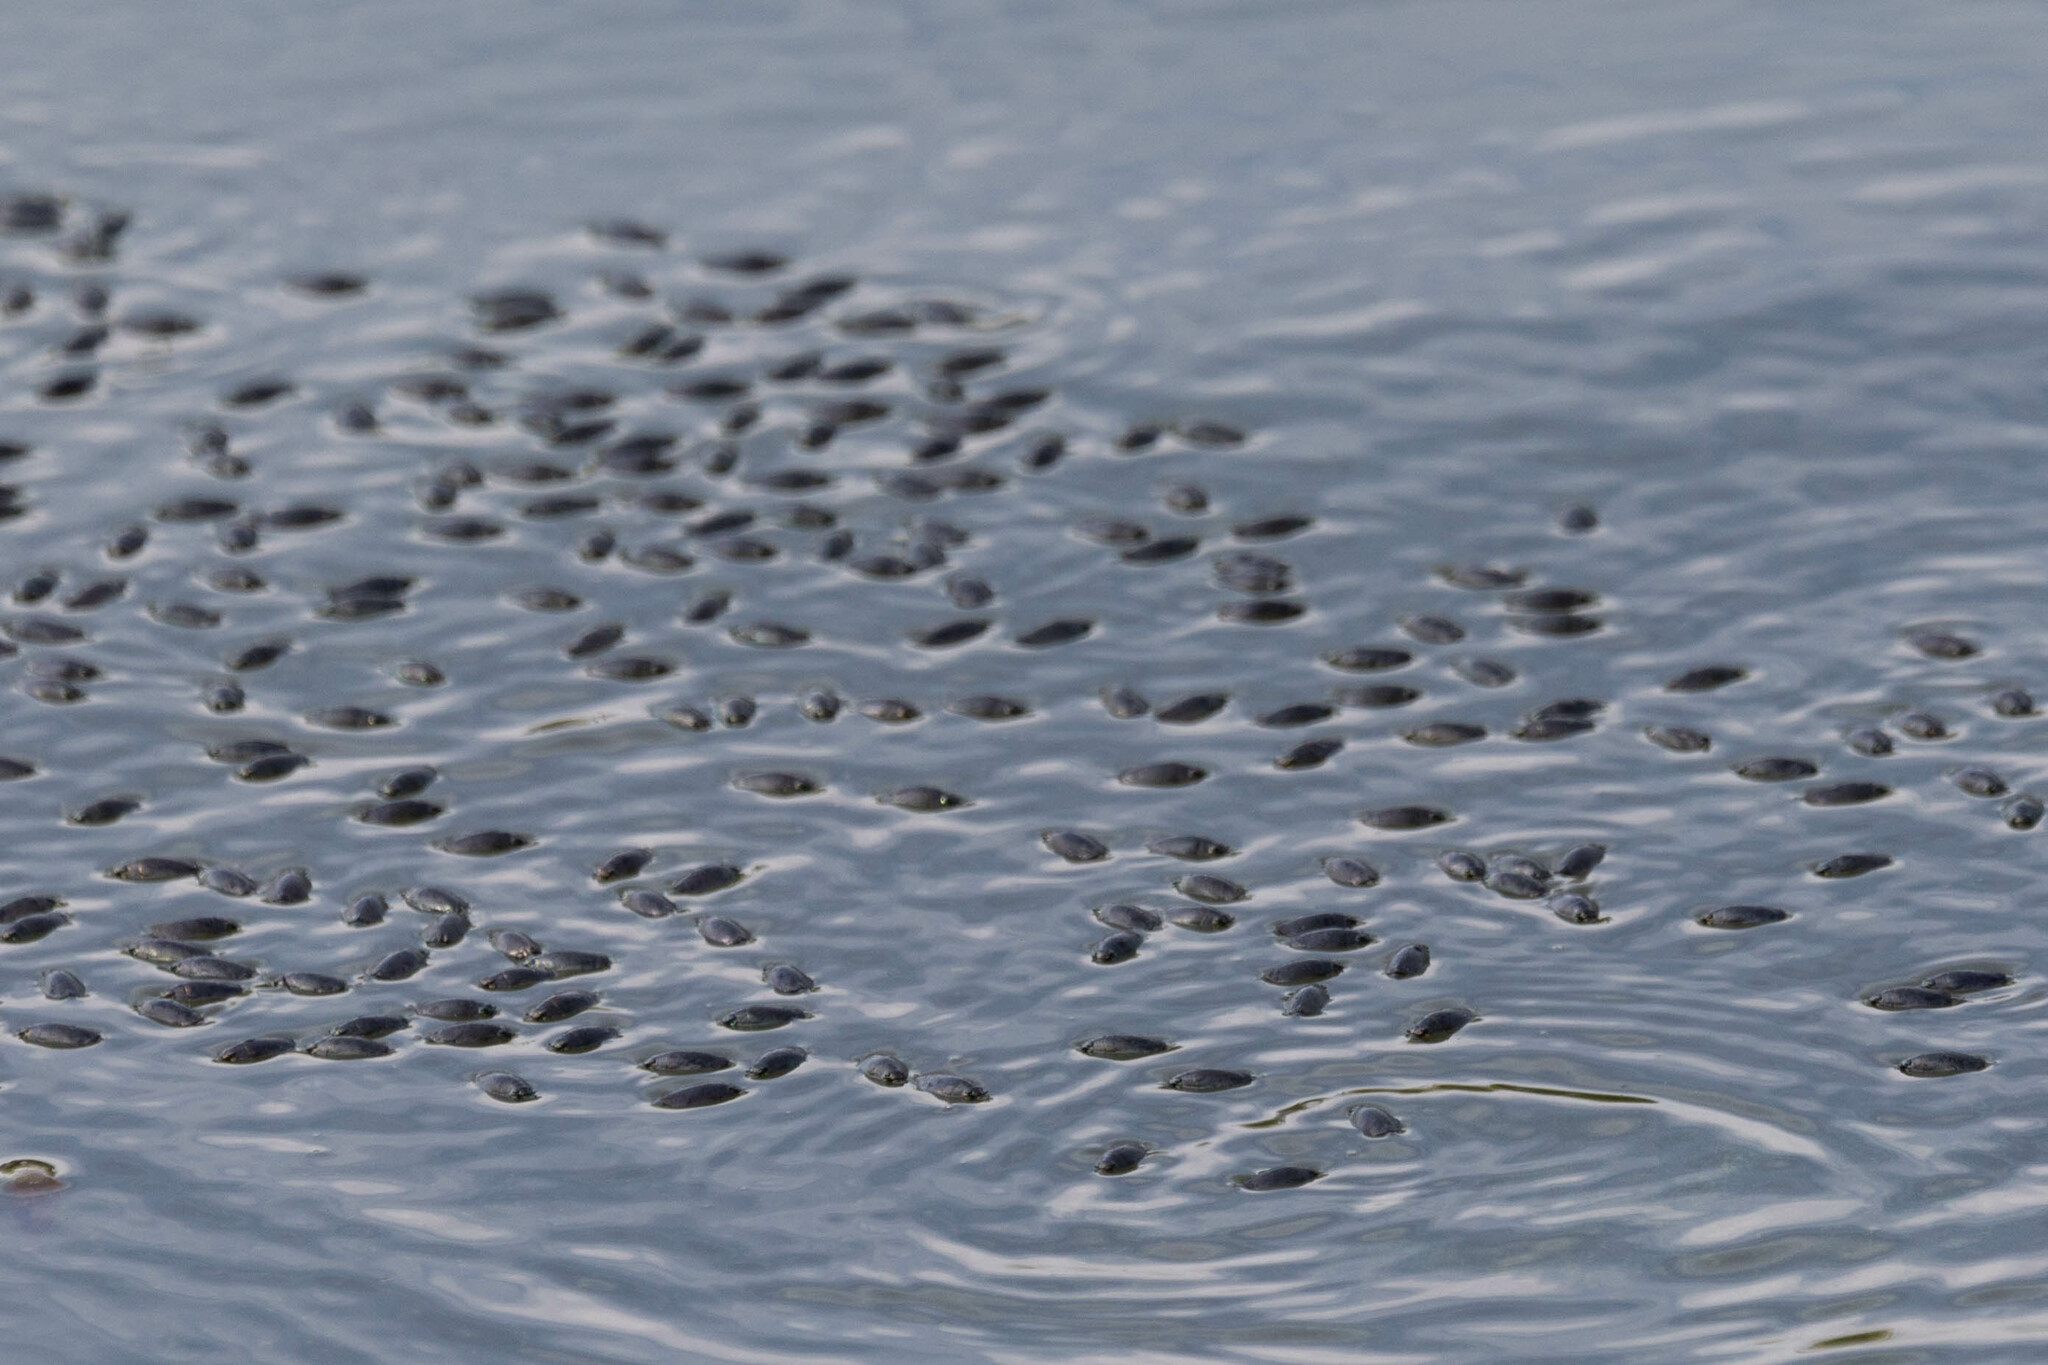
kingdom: Animalia
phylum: Arthropoda
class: Insecta
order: Coleoptera
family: Gyrinidae
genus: Dineutus
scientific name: Dineutus
